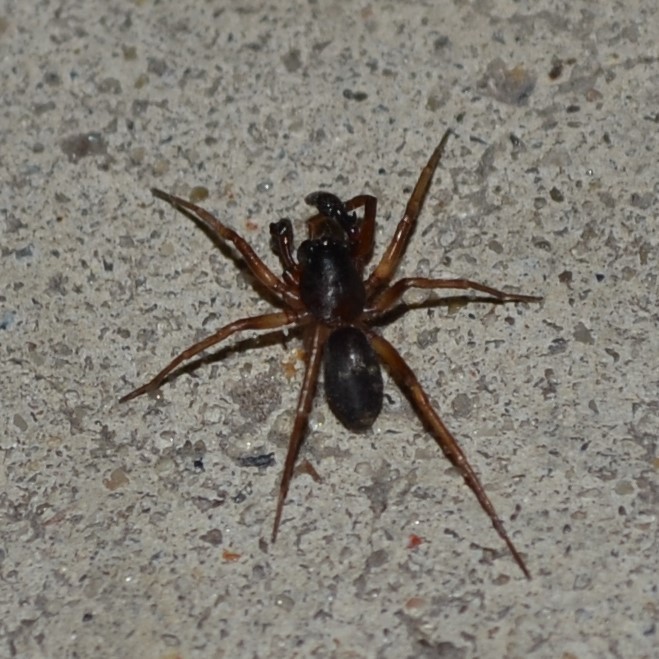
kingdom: Animalia
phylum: Arthropoda
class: Arachnida
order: Araneae
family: Corinnidae
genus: Falconina
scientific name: Falconina gracilis
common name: Antmimic spider
